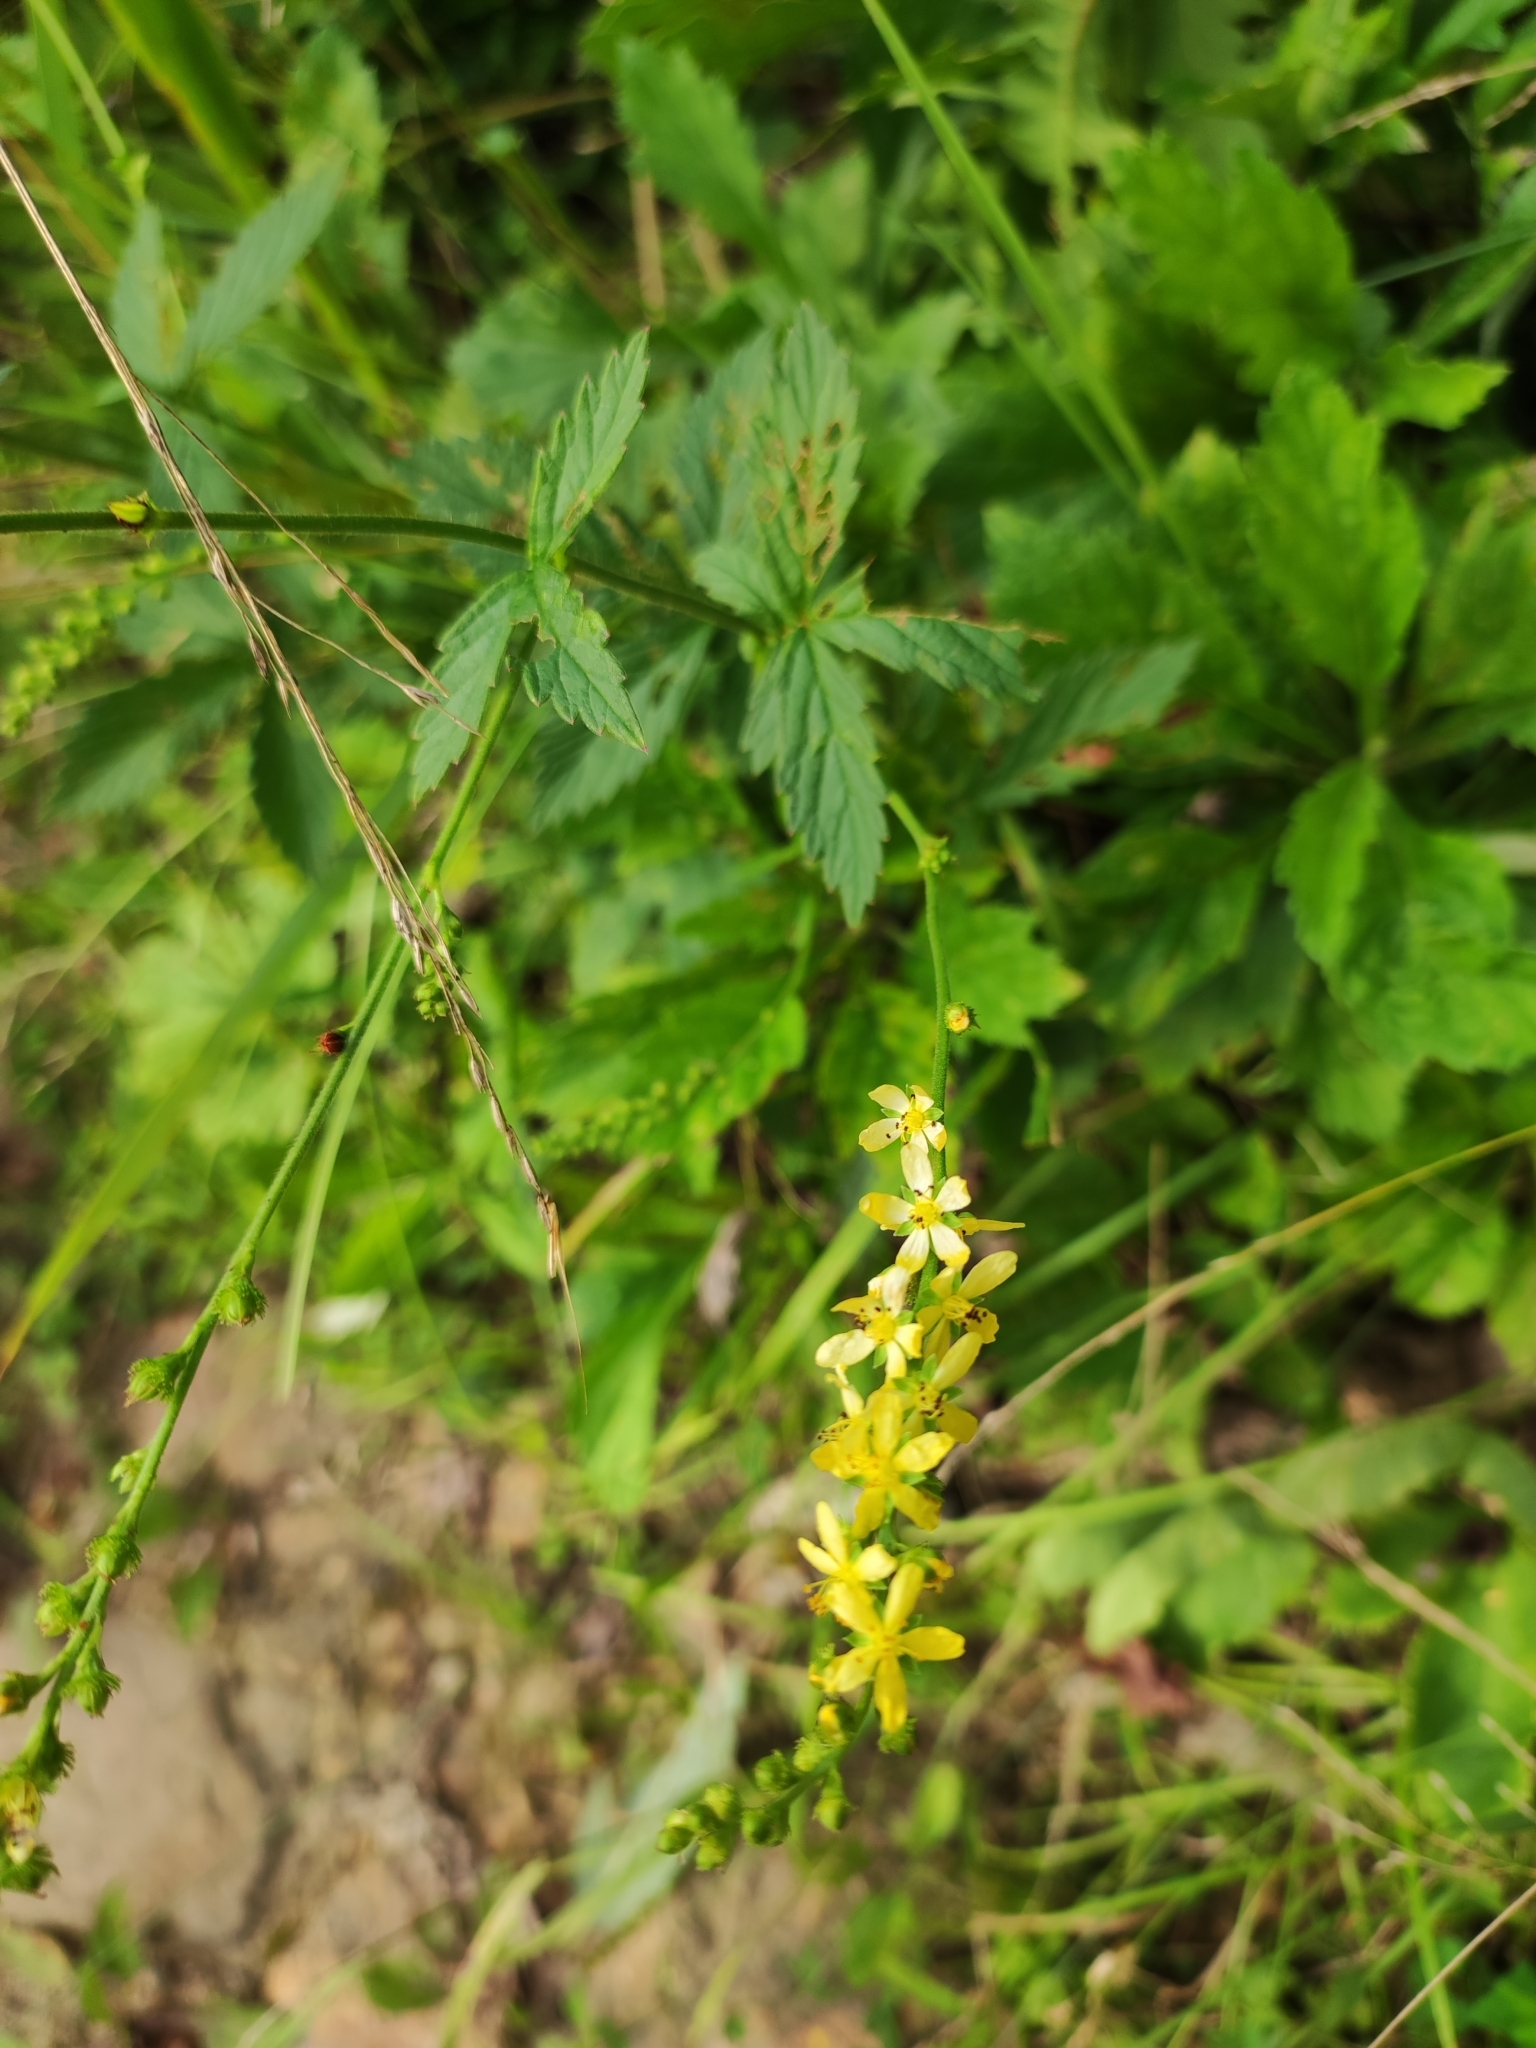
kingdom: Plantae
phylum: Tracheophyta
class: Magnoliopsida
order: Rosales
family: Rosaceae
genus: Agrimonia
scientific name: Agrimonia pilosa
